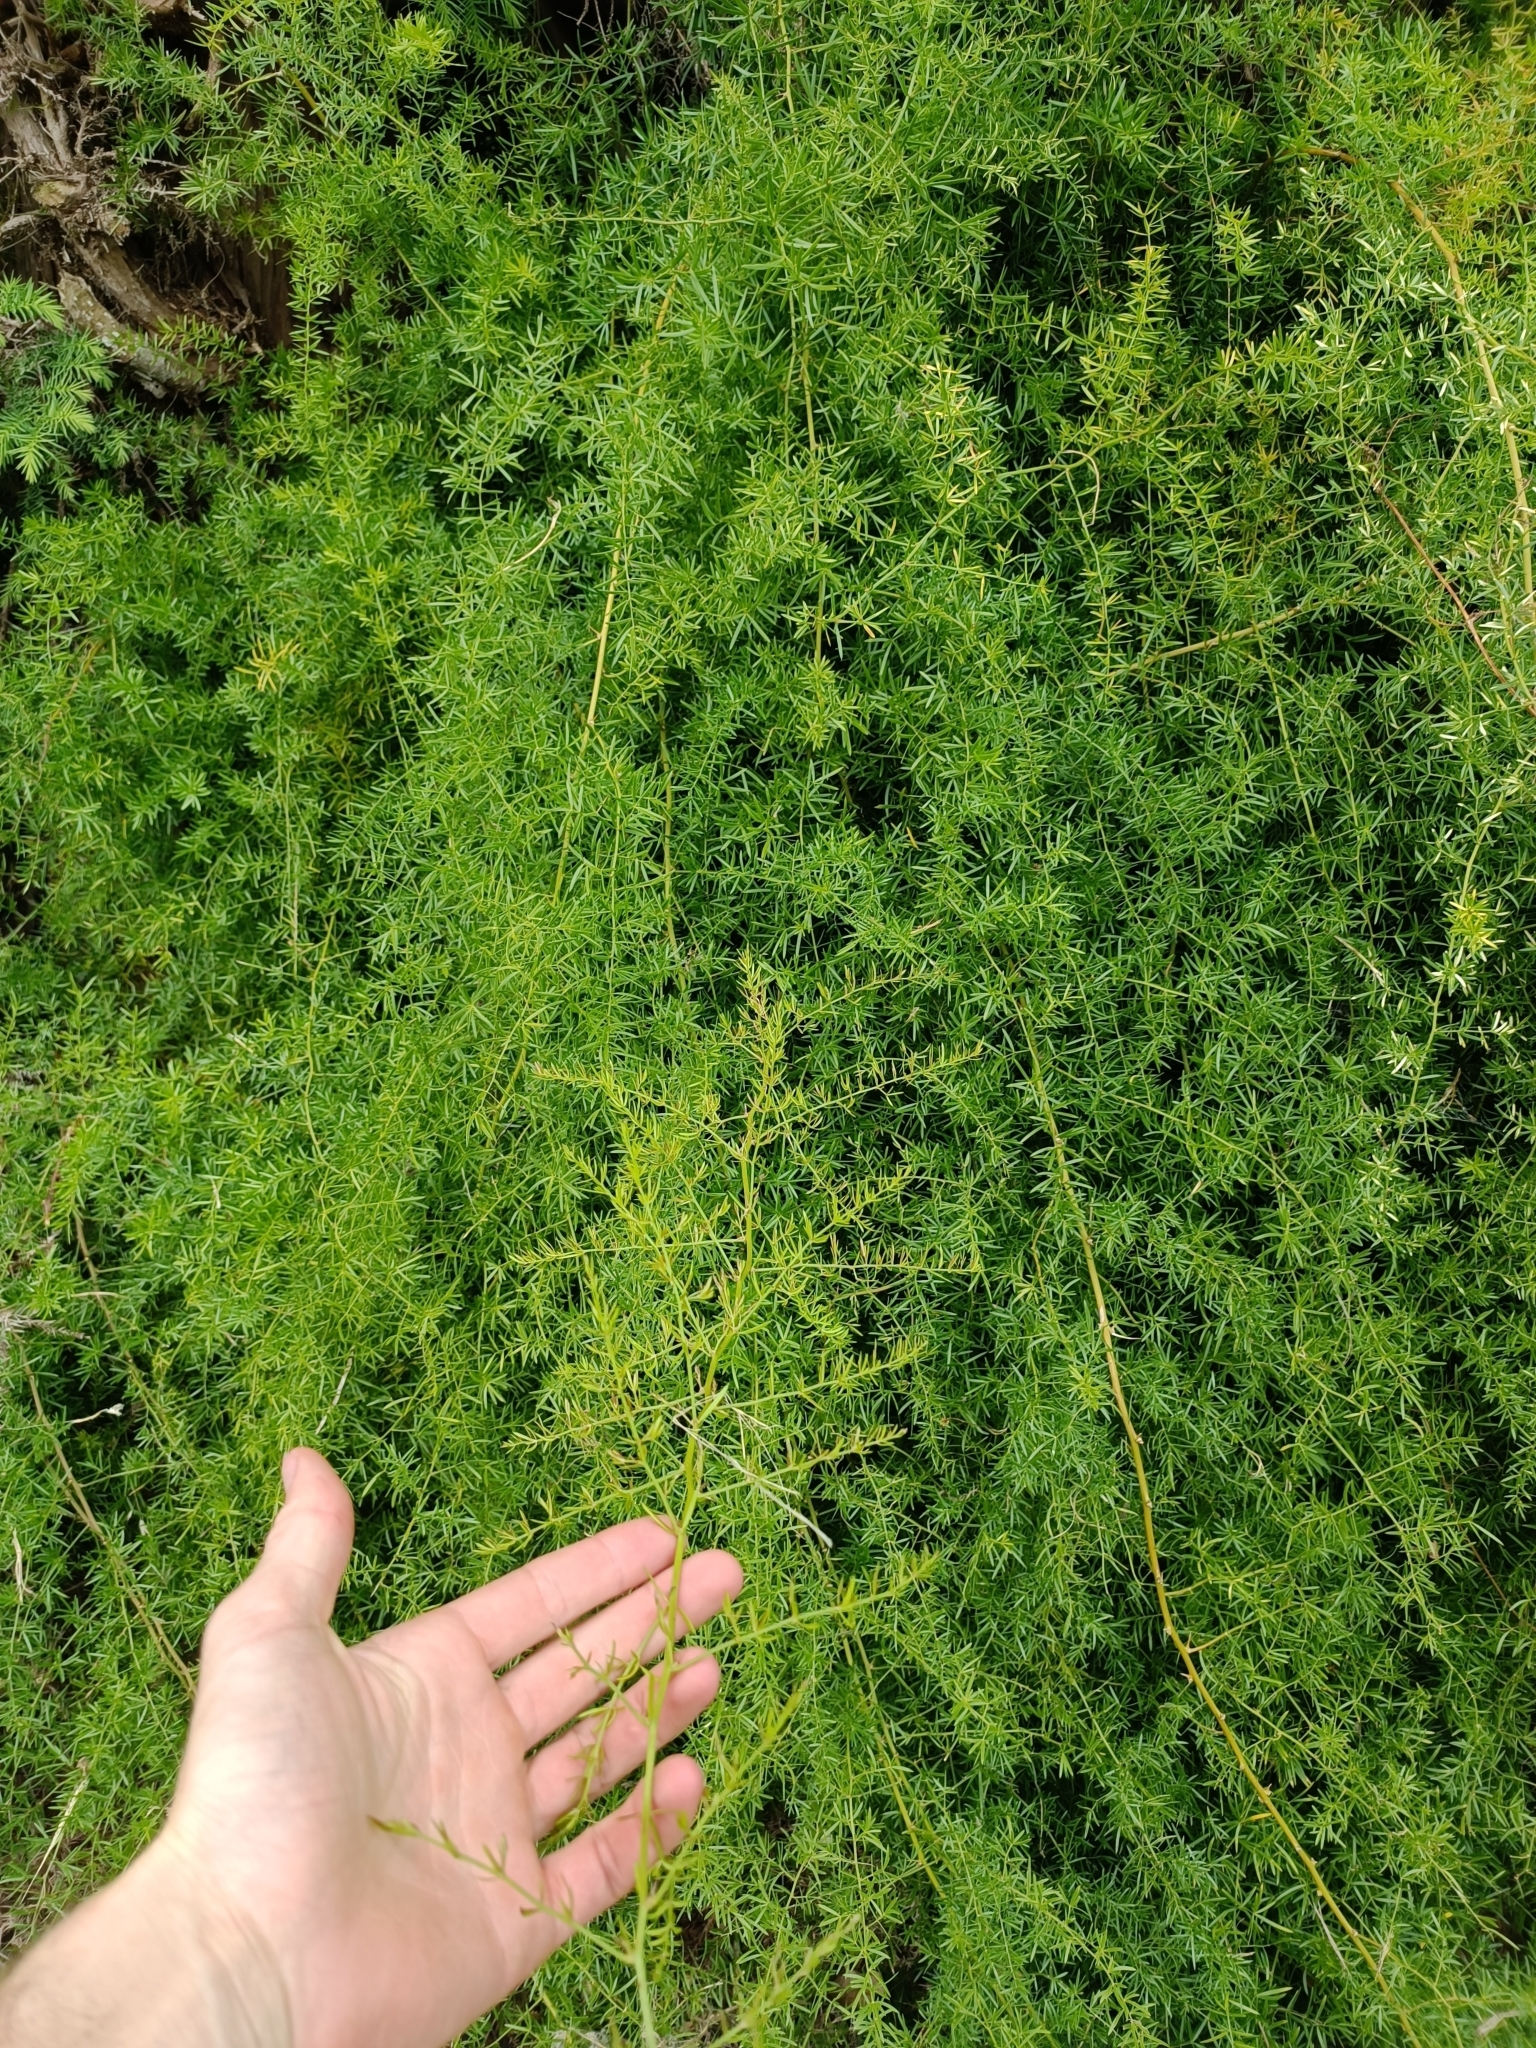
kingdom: Plantae
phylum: Tracheophyta
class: Liliopsida
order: Asparagales
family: Asparagaceae
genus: Asparagus
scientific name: Asparagus aethiopicus
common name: Sprenger's asparagus fern
